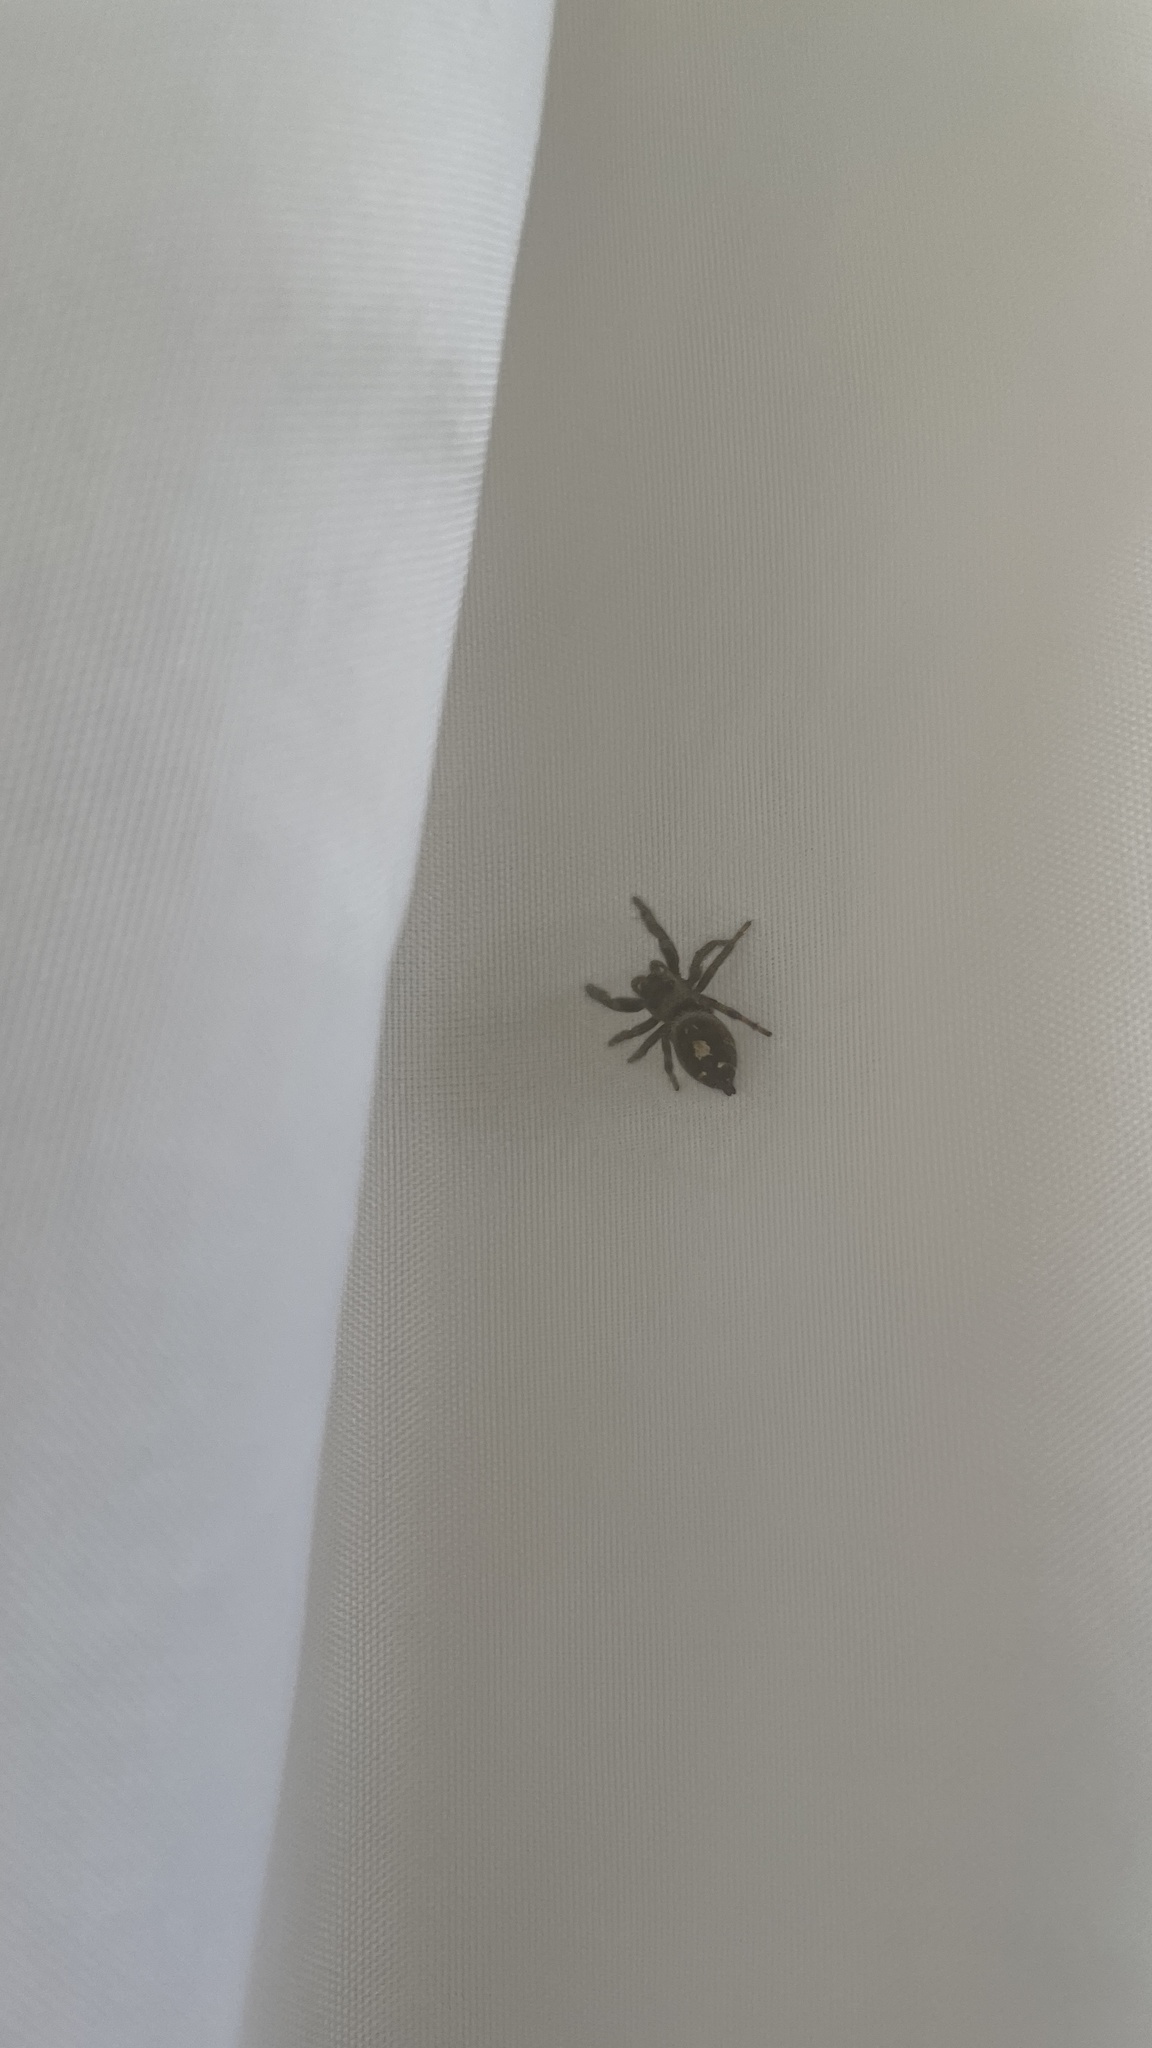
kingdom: Animalia
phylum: Arthropoda
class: Arachnida
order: Araneae
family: Salticidae
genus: Phidippus
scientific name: Phidippus audax
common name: Bold jumper
